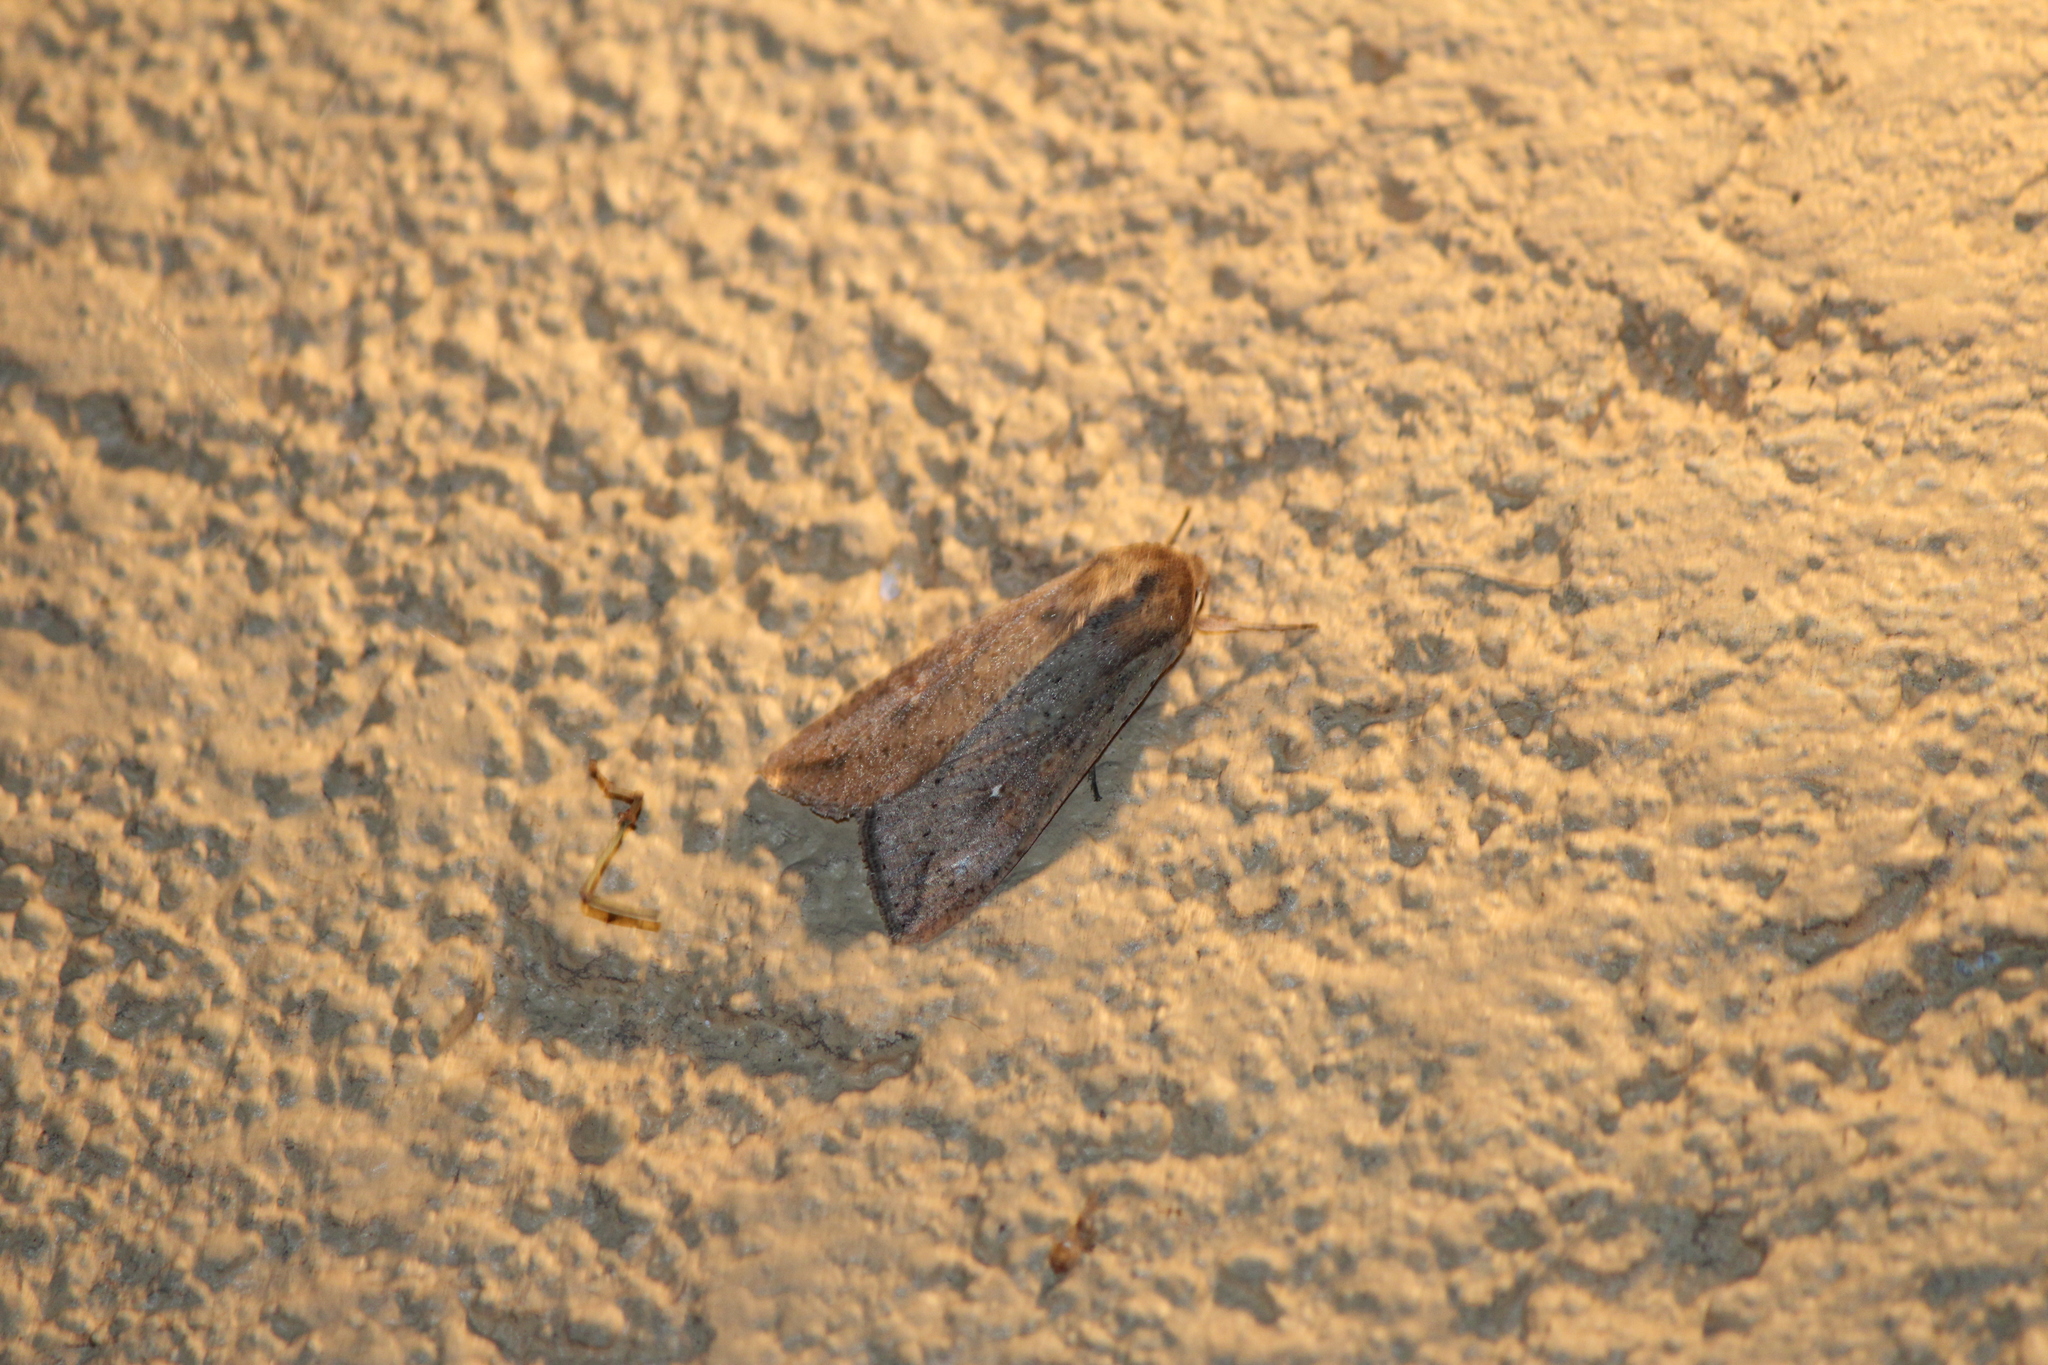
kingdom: Animalia
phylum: Arthropoda
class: Insecta
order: Lepidoptera
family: Noctuidae
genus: Mythimna
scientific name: Mythimna unipuncta
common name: White-speck
